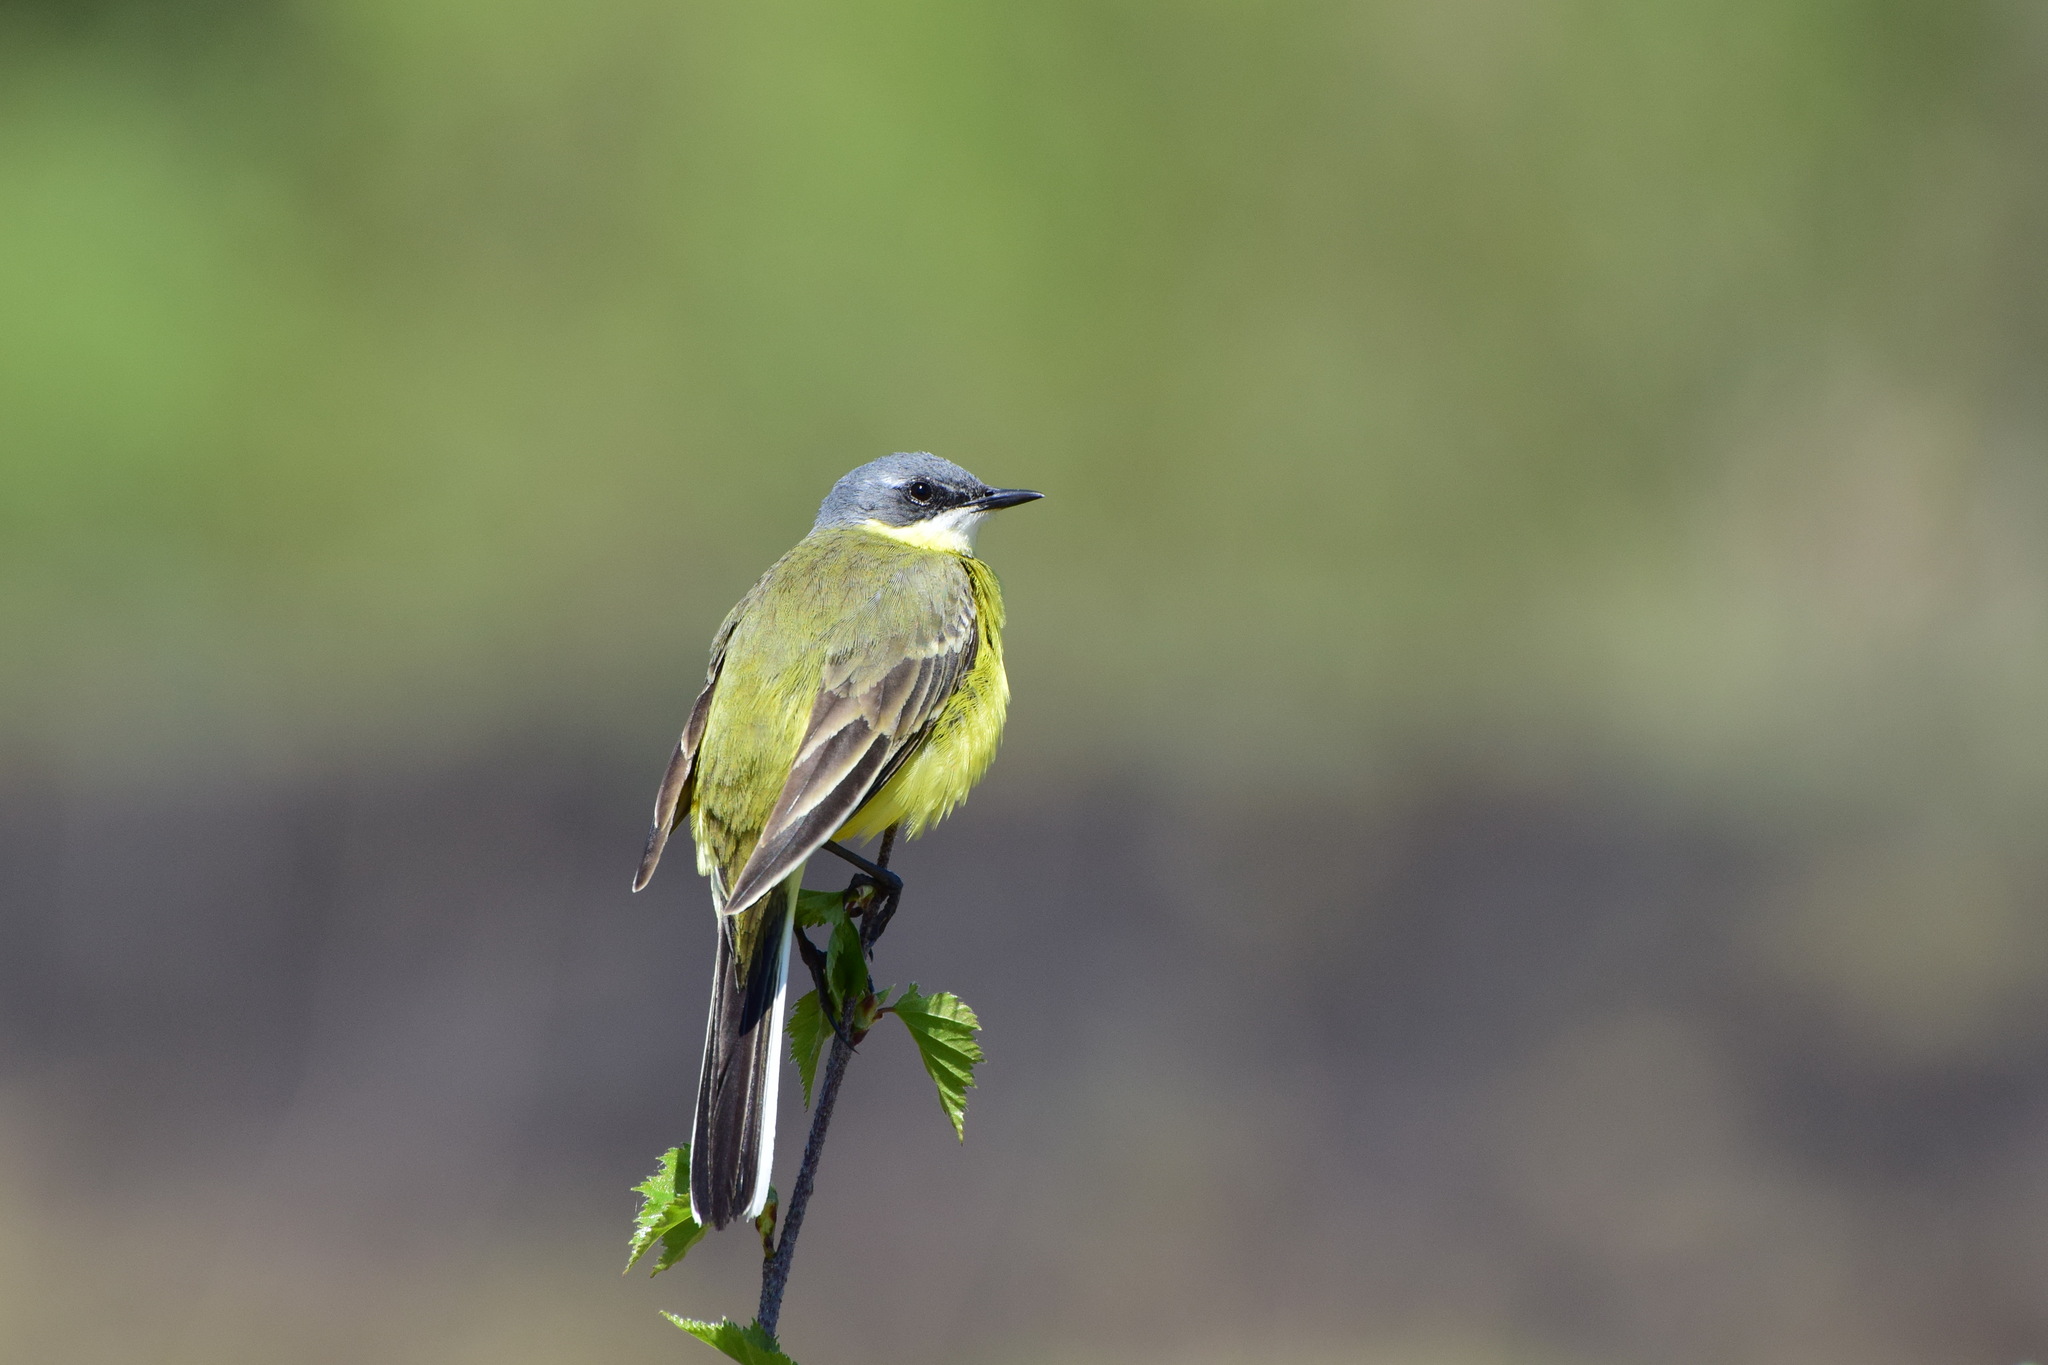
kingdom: Animalia
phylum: Chordata
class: Aves
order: Passeriformes
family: Motacillidae
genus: Motacilla
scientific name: Motacilla flava
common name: Western yellow wagtail
